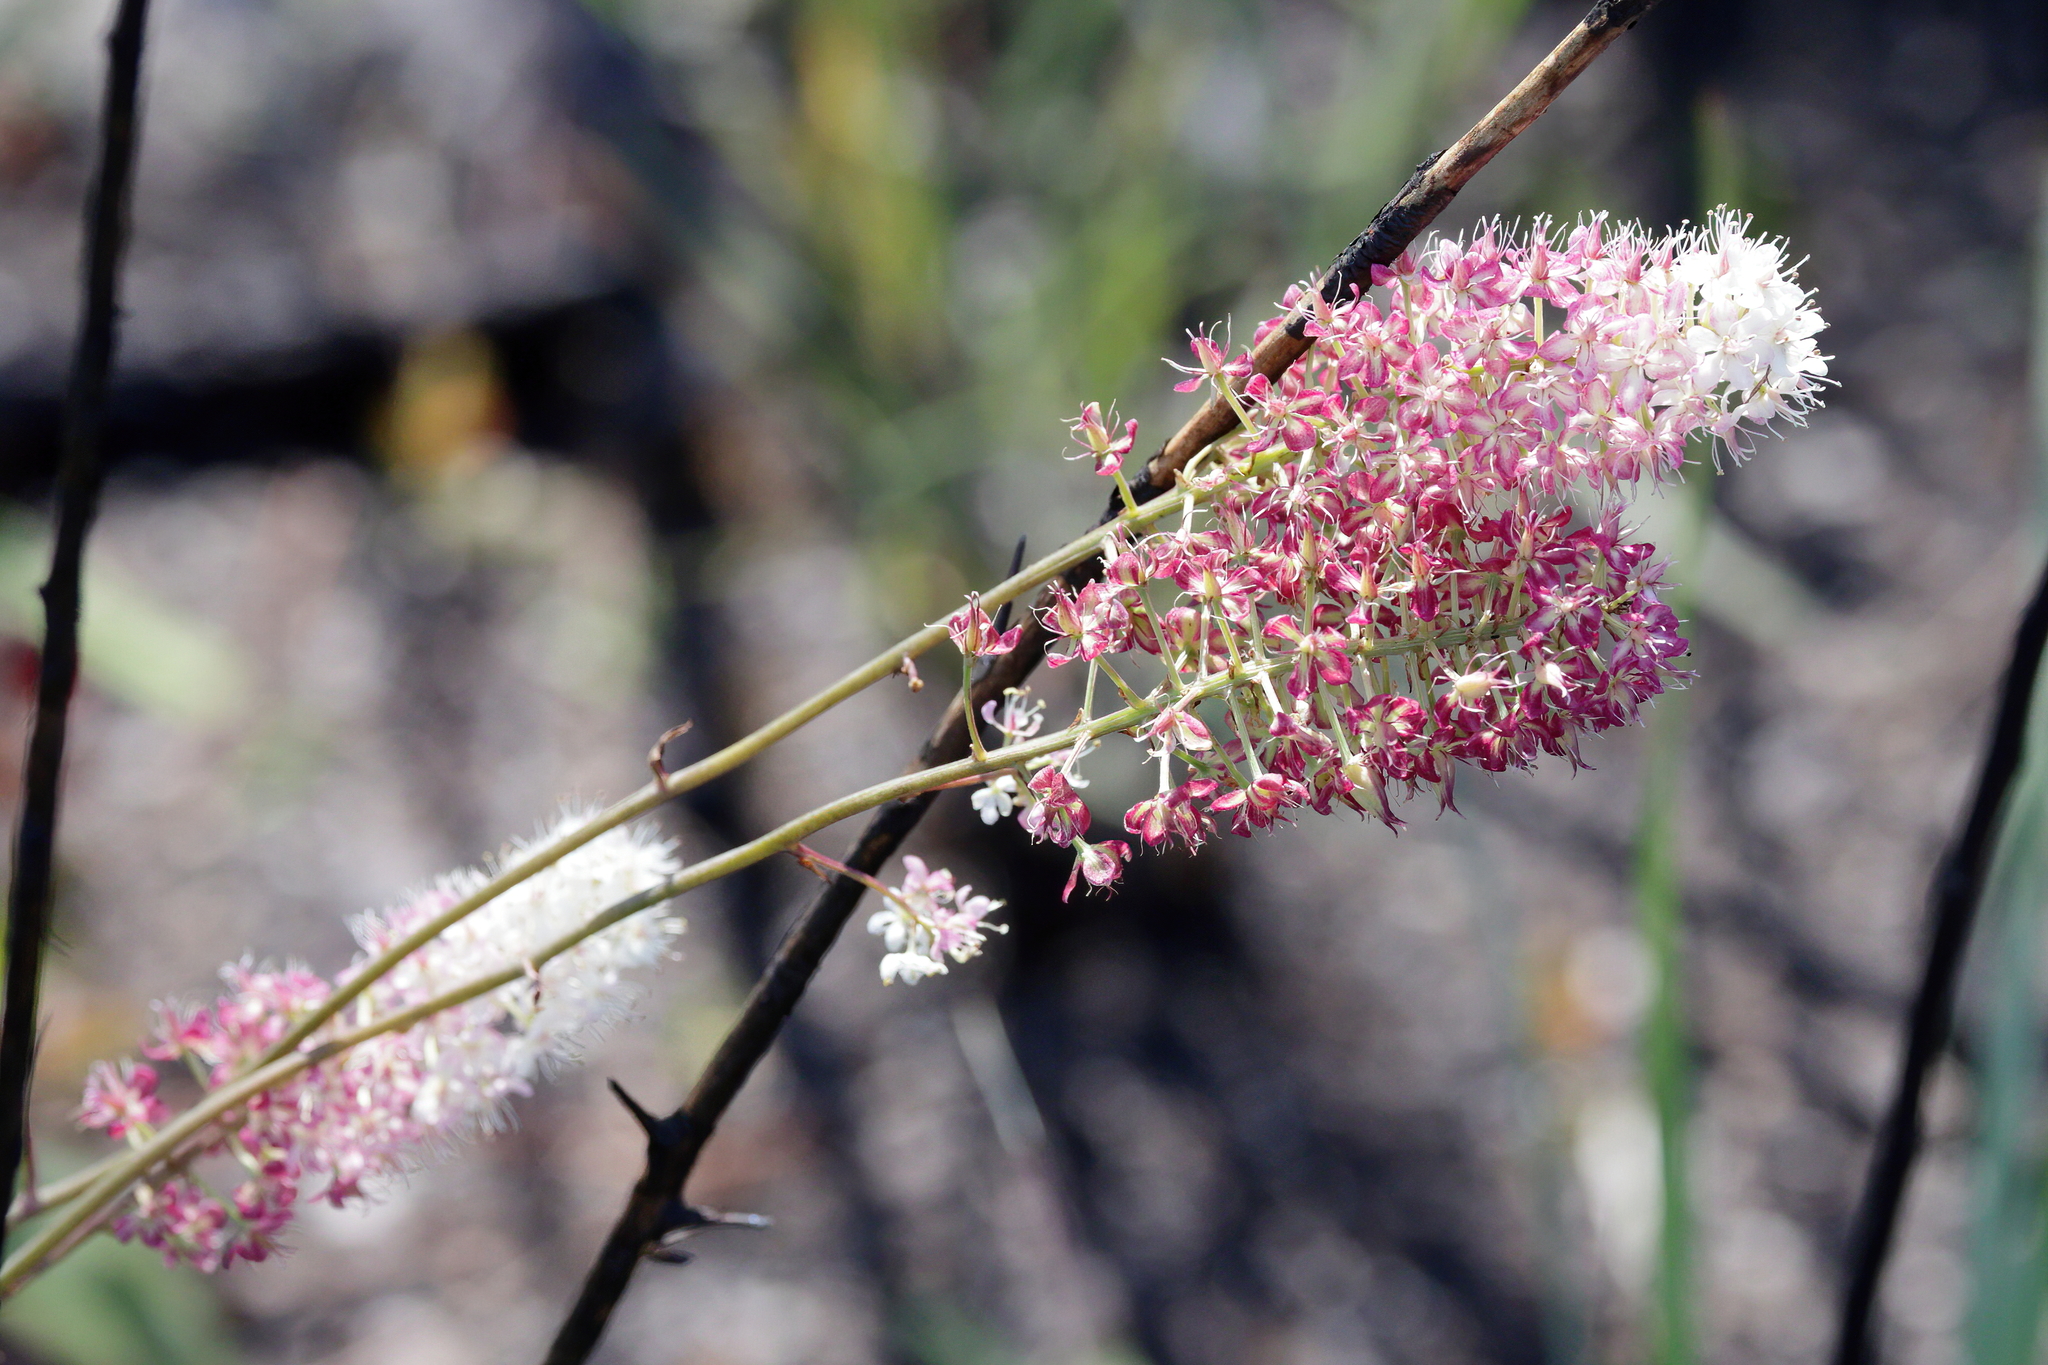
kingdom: Plantae
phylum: Tracheophyta
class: Liliopsida
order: Liliales
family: Melanthiaceae
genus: Stenanthium
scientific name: Stenanthium densum
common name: Crow-poison
